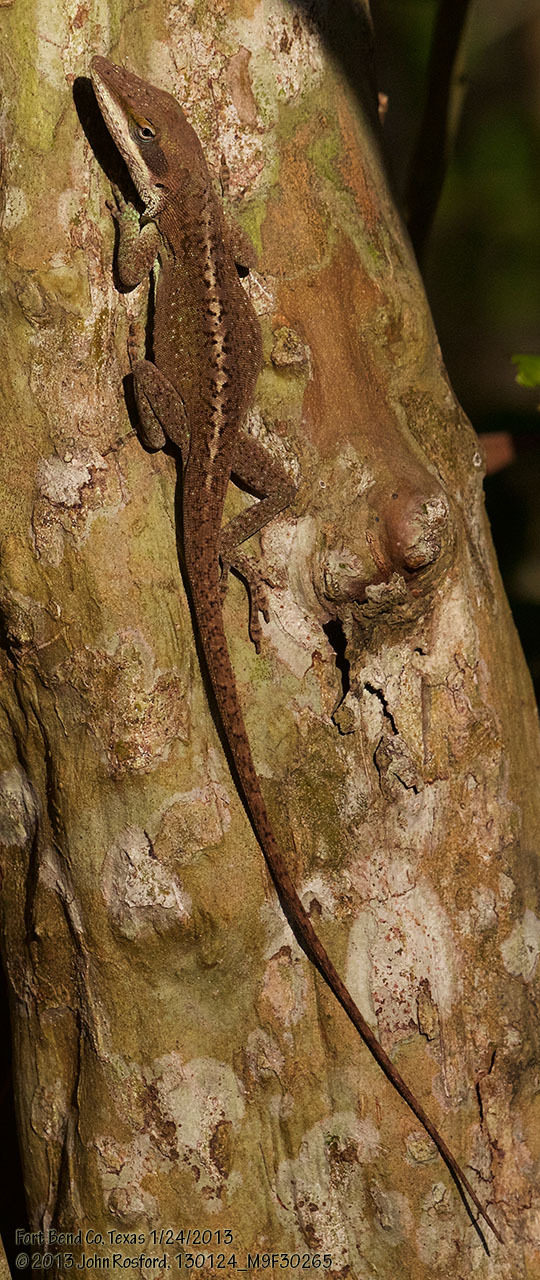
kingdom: Animalia
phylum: Chordata
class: Squamata
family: Dactyloidae
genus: Anolis
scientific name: Anolis carolinensis
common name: Green anole
